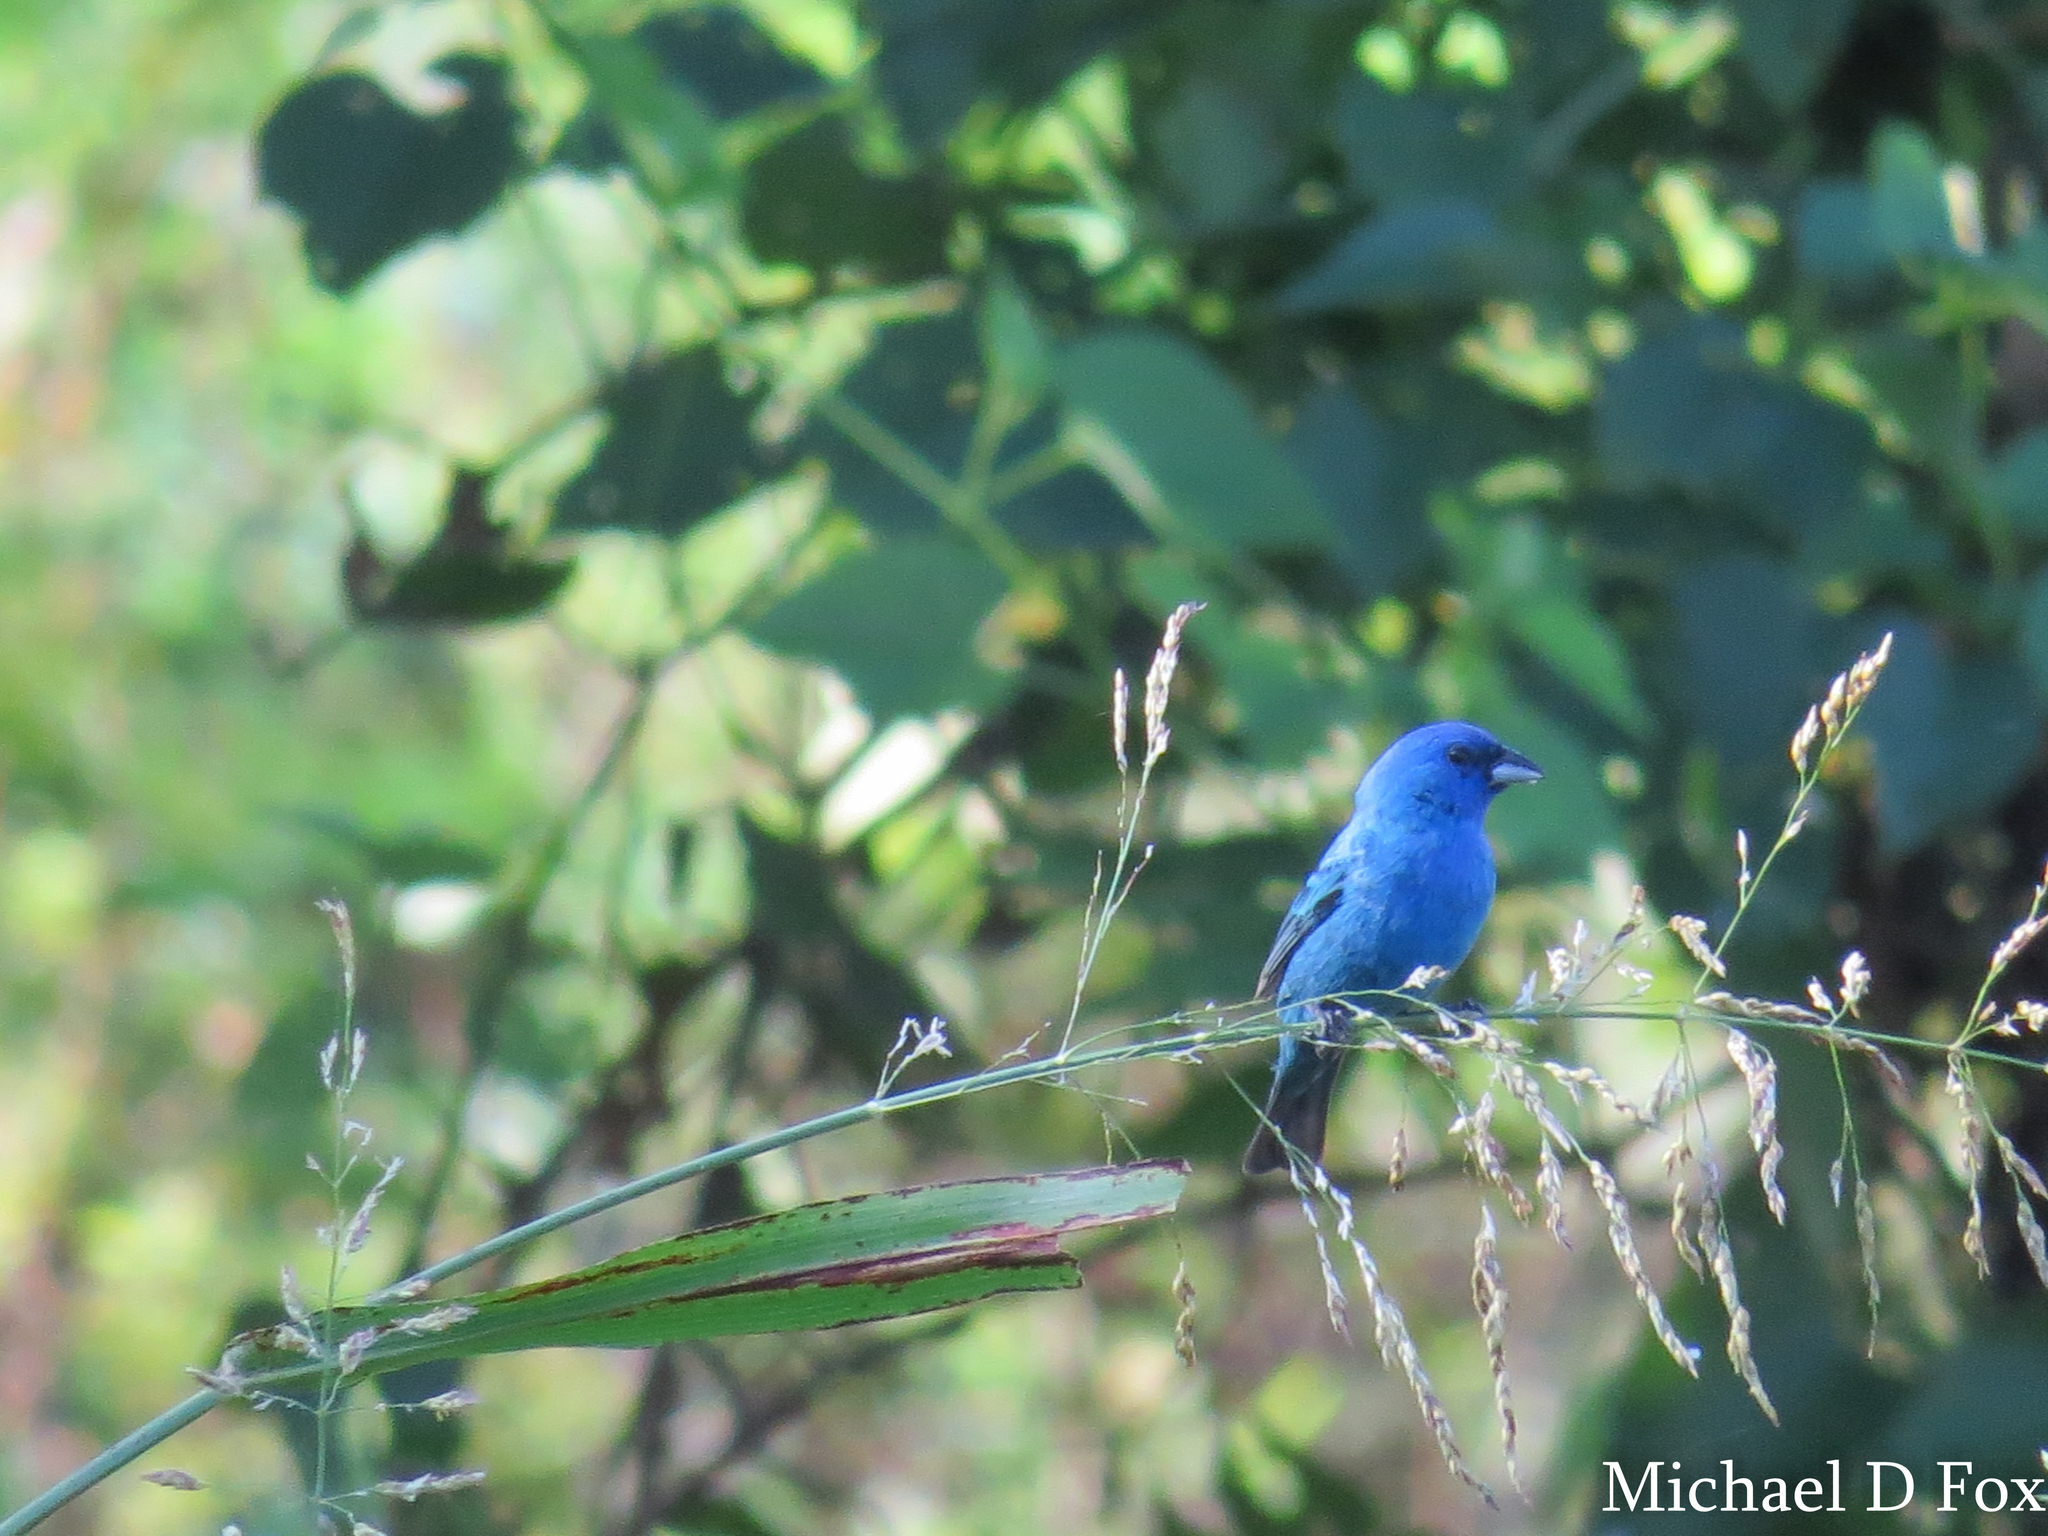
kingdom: Animalia
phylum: Chordata
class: Aves
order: Passeriformes
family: Cardinalidae
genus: Passerina
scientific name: Passerina cyanea
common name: Indigo bunting
